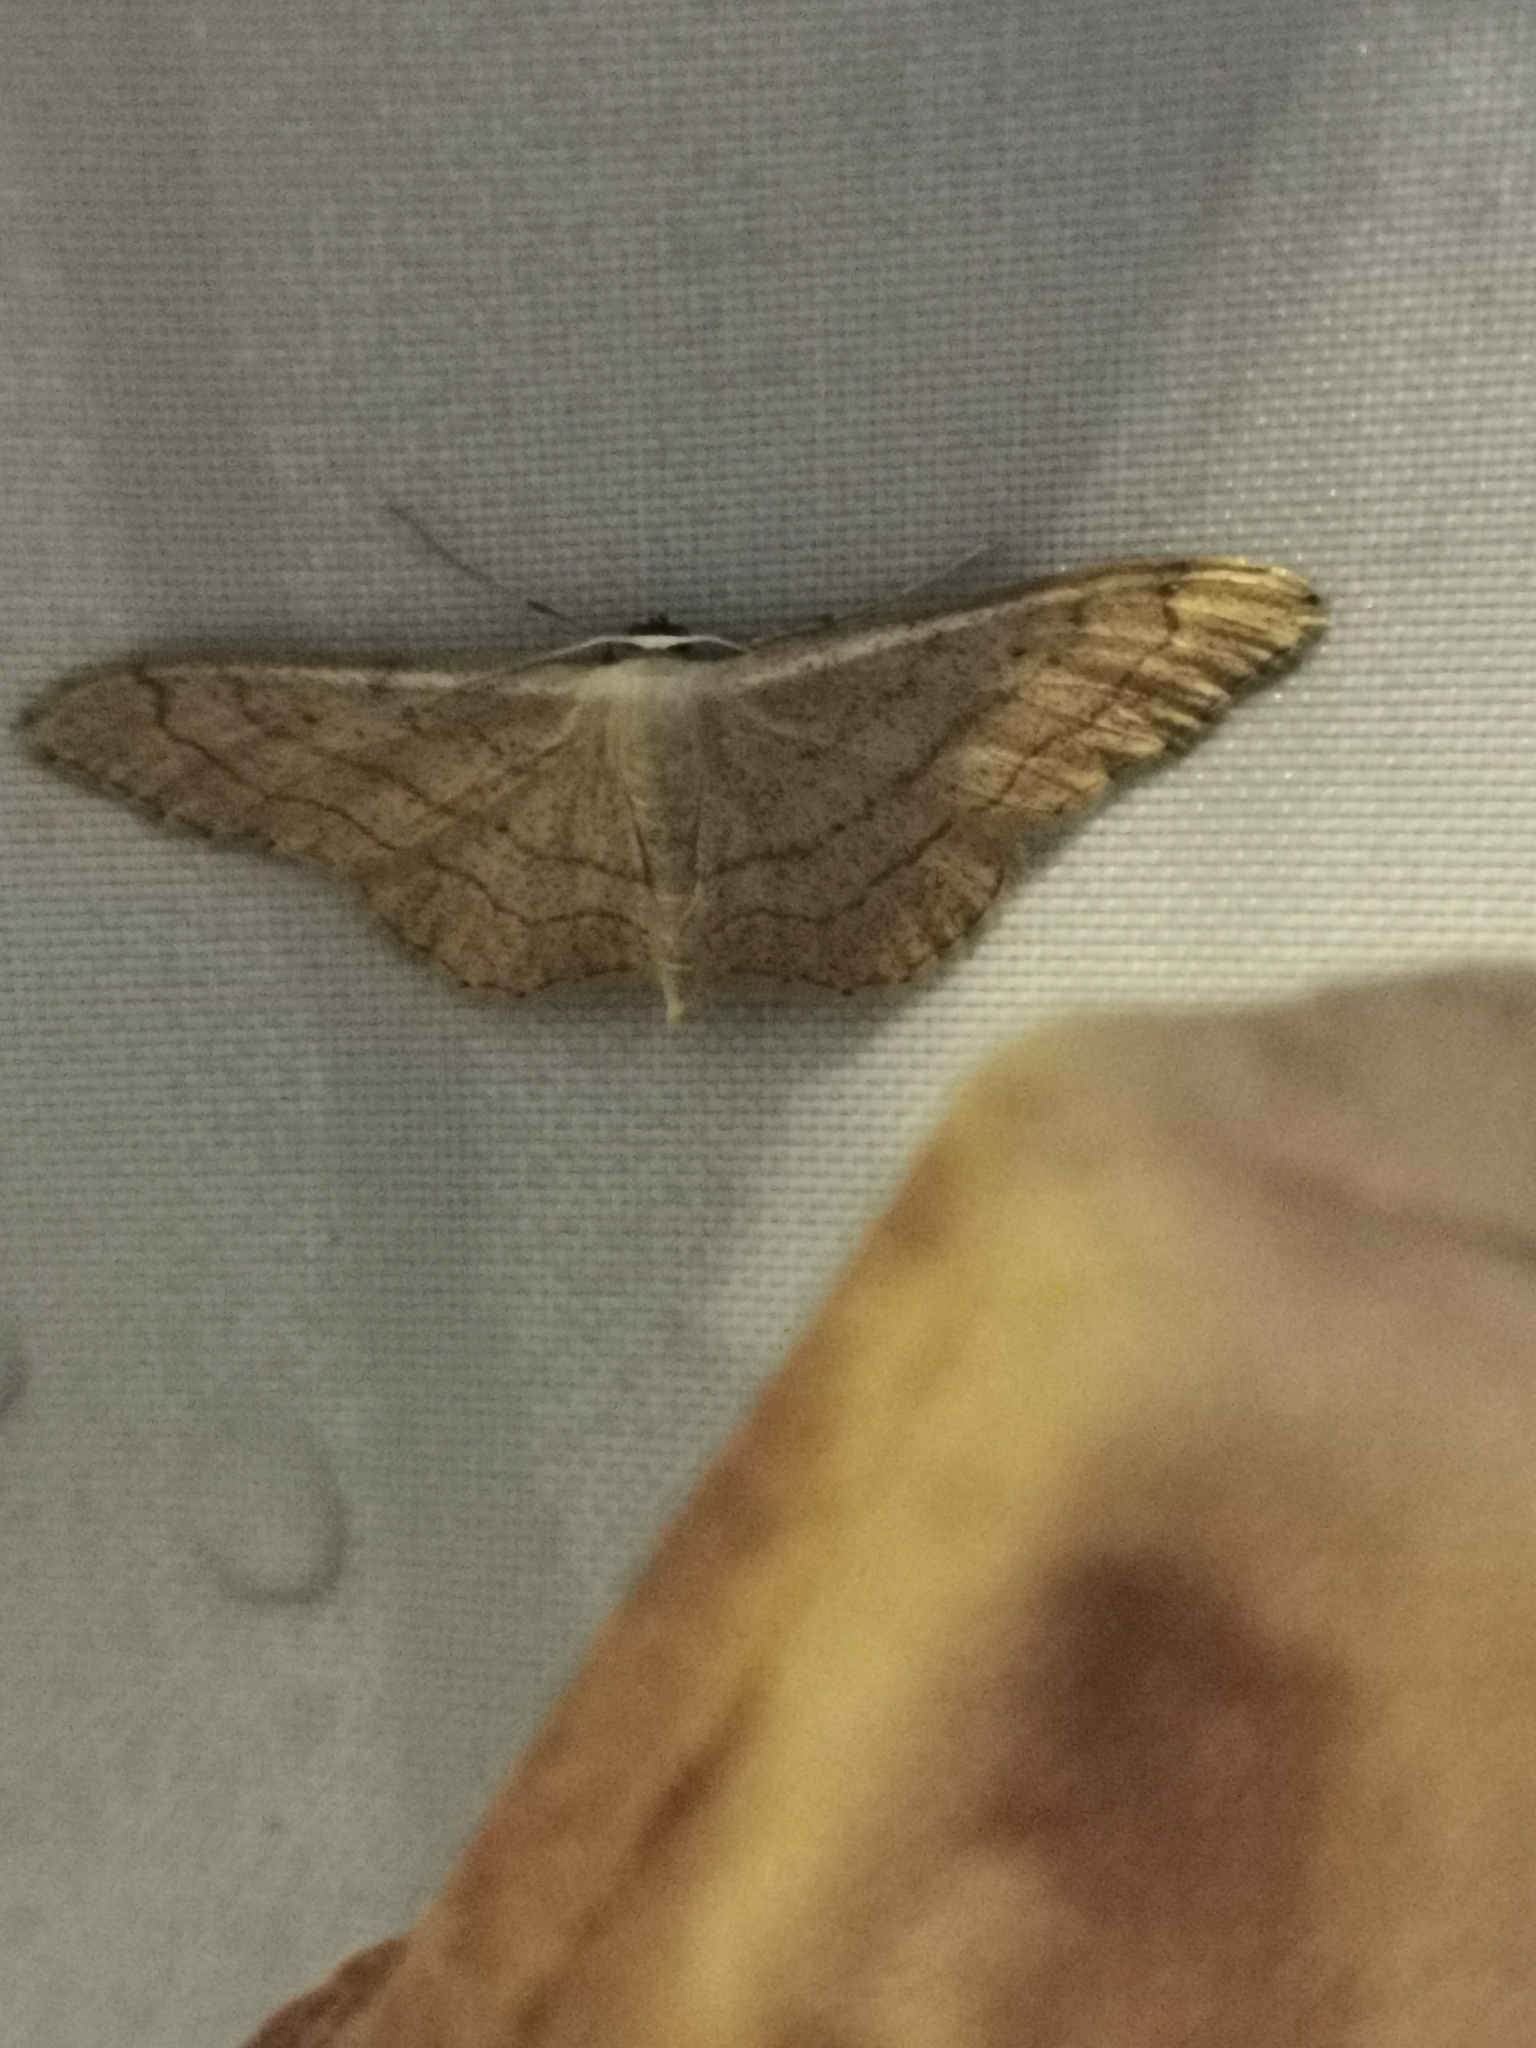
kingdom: Animalia
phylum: Arthropoda
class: Insecta
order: Lepidoptera
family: Geometridae
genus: Idaea
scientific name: Idaea aversata
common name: Riband wave
